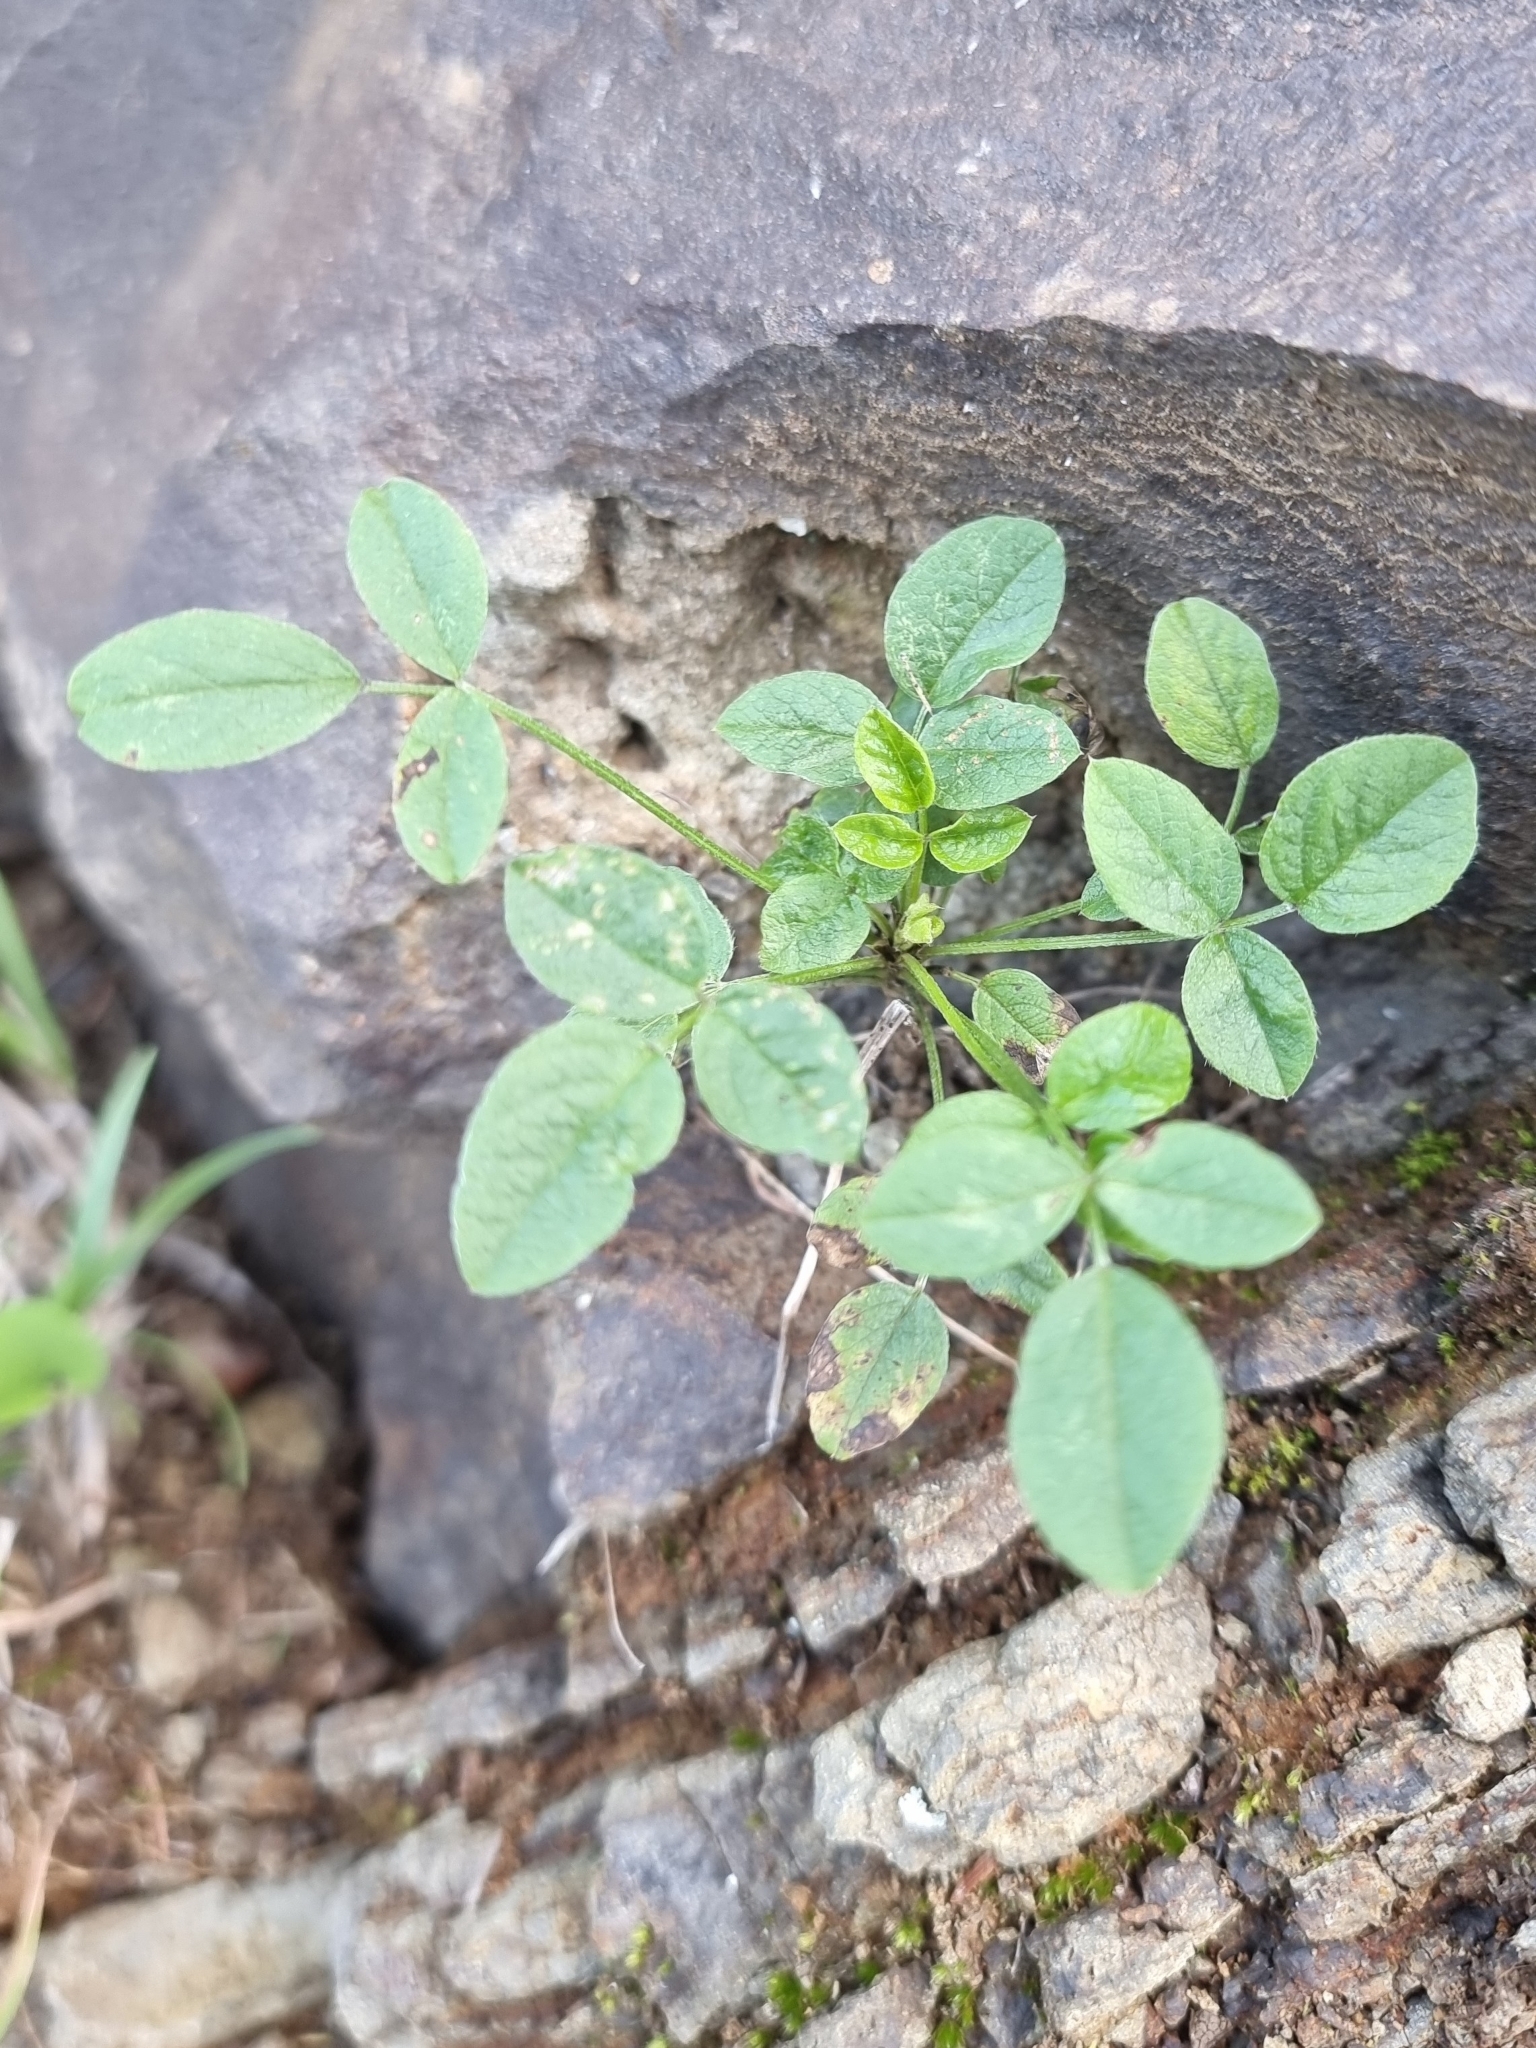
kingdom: Plantae
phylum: Tracheophyta
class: Magnoliopsida
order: Fabales
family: Fabaceae
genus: Bituminaria
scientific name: Bituminaria bituminosa
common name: Arabian pea
